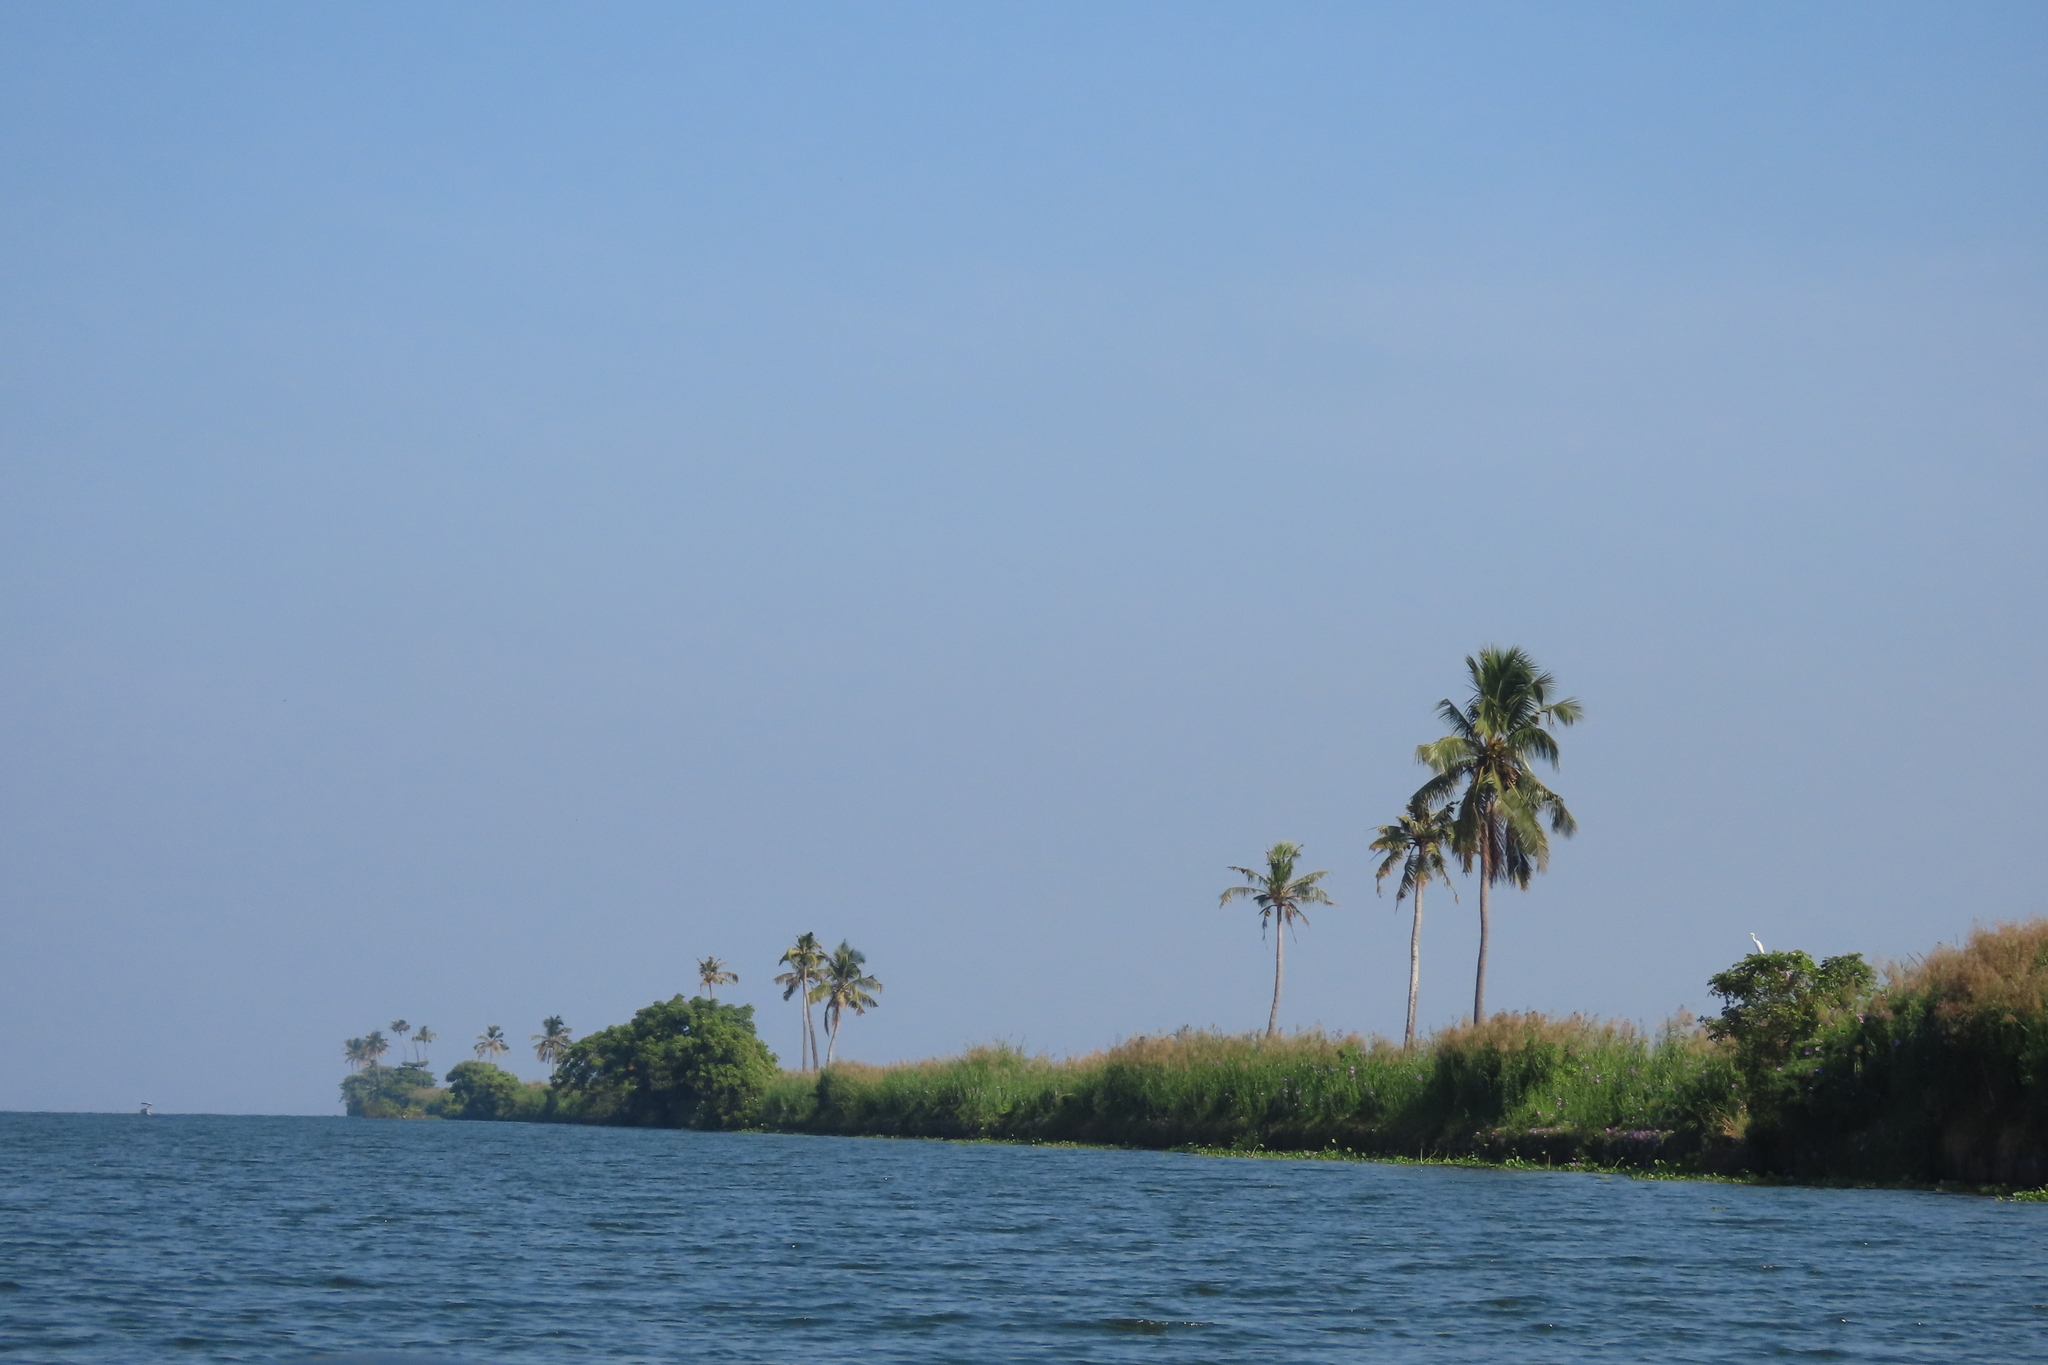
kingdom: Plantae
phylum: Tracheophyta
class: Liliopsida
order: Arecales
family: Arecaceae
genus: Cocos
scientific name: Cocos nucifera
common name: Coconut palm
